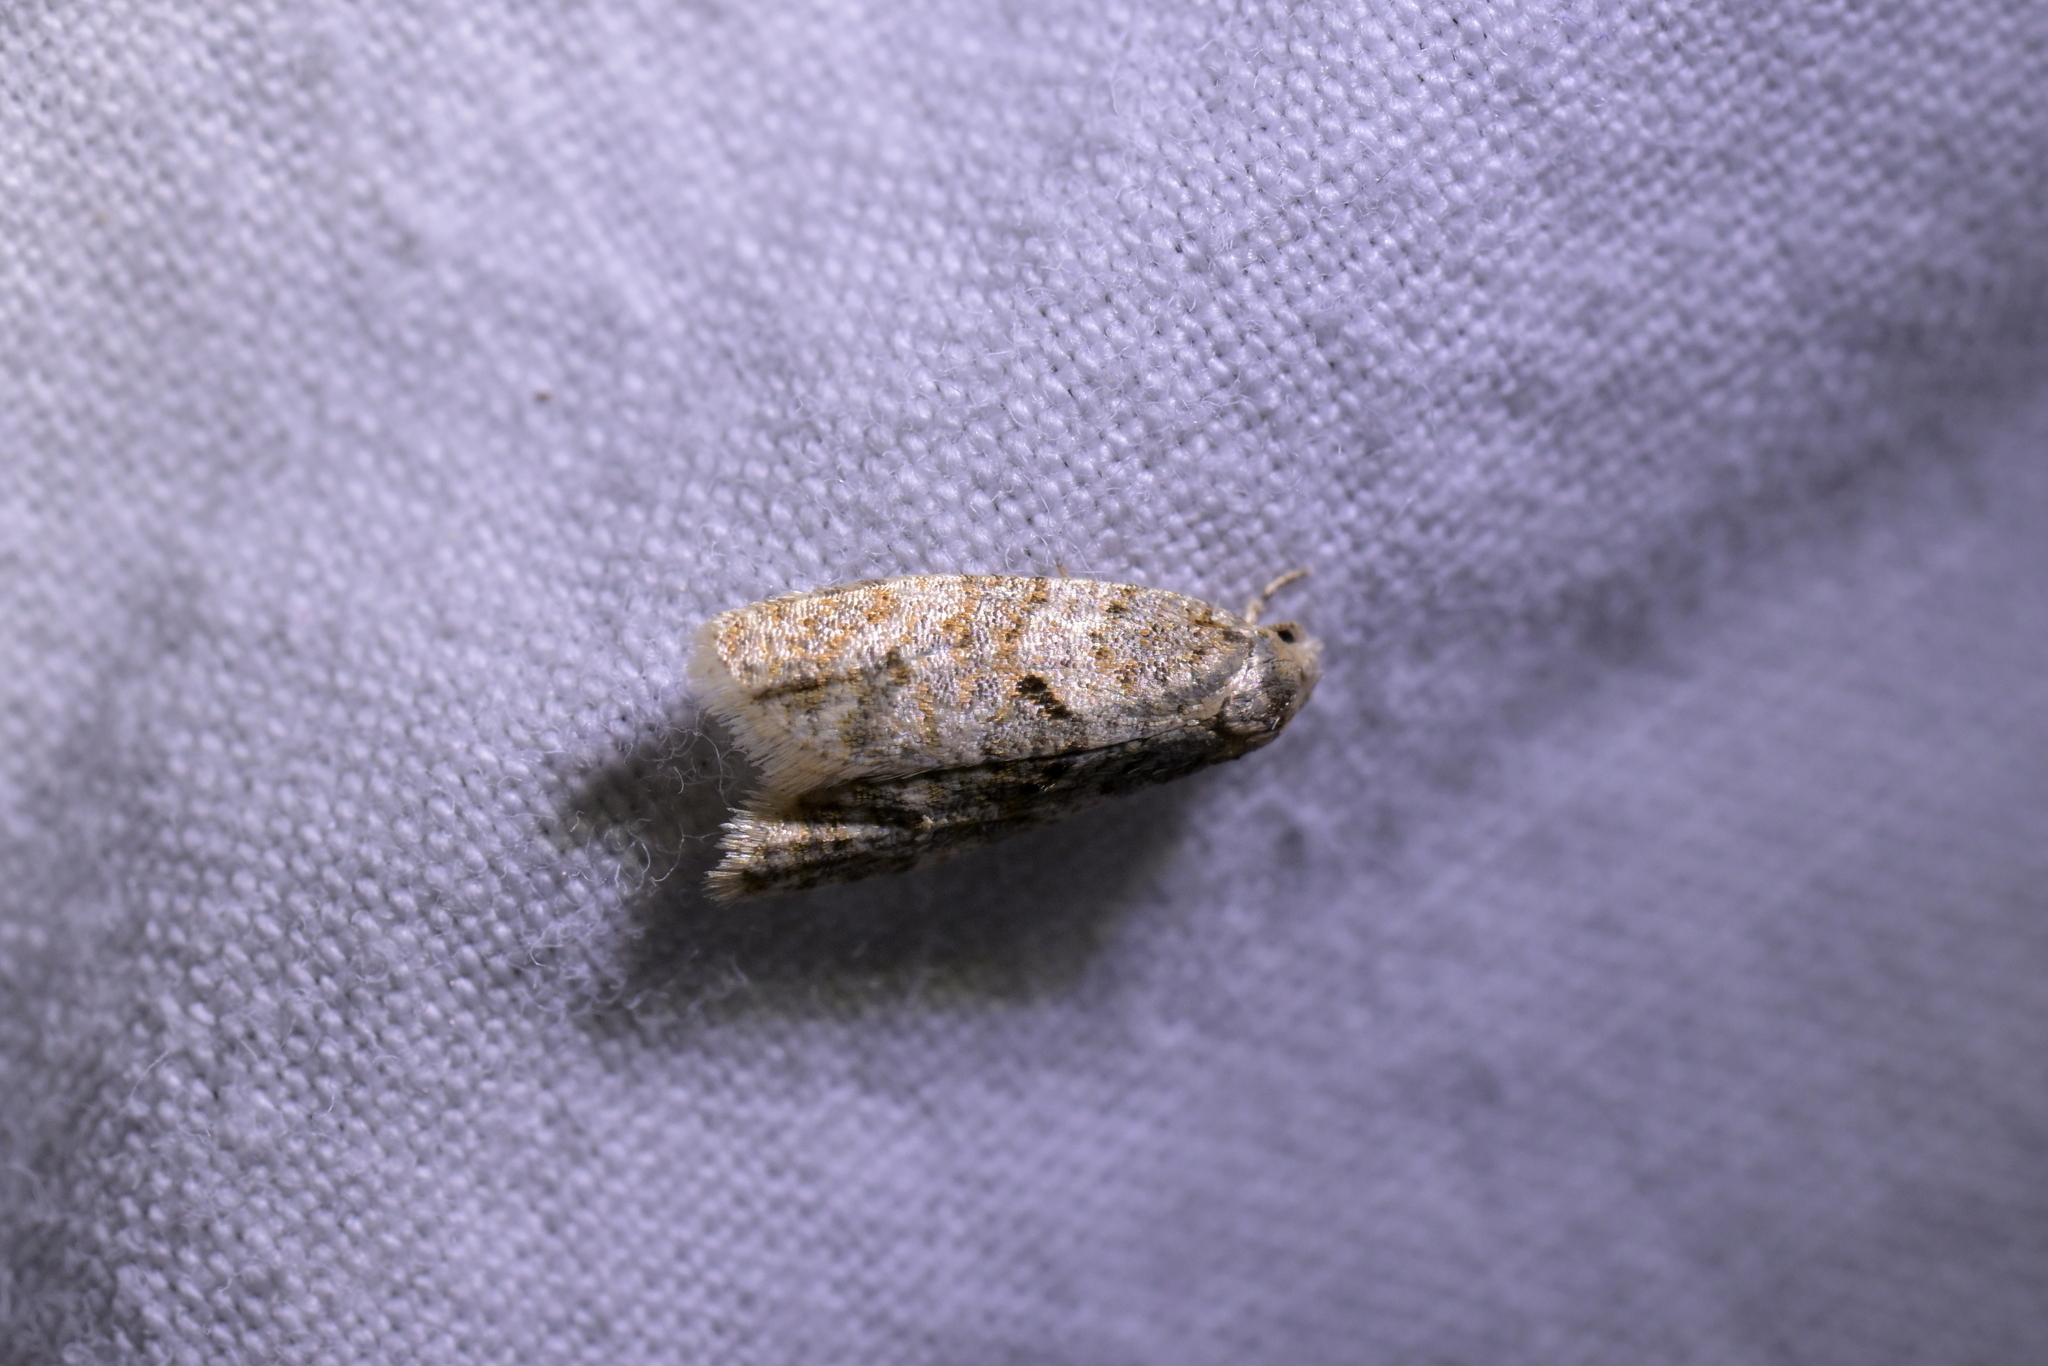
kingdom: Animalia
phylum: Arthropoda
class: Insecta
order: Lepidoptera
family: Tortricidae
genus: Dipterina
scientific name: Dipterina imbriferana
